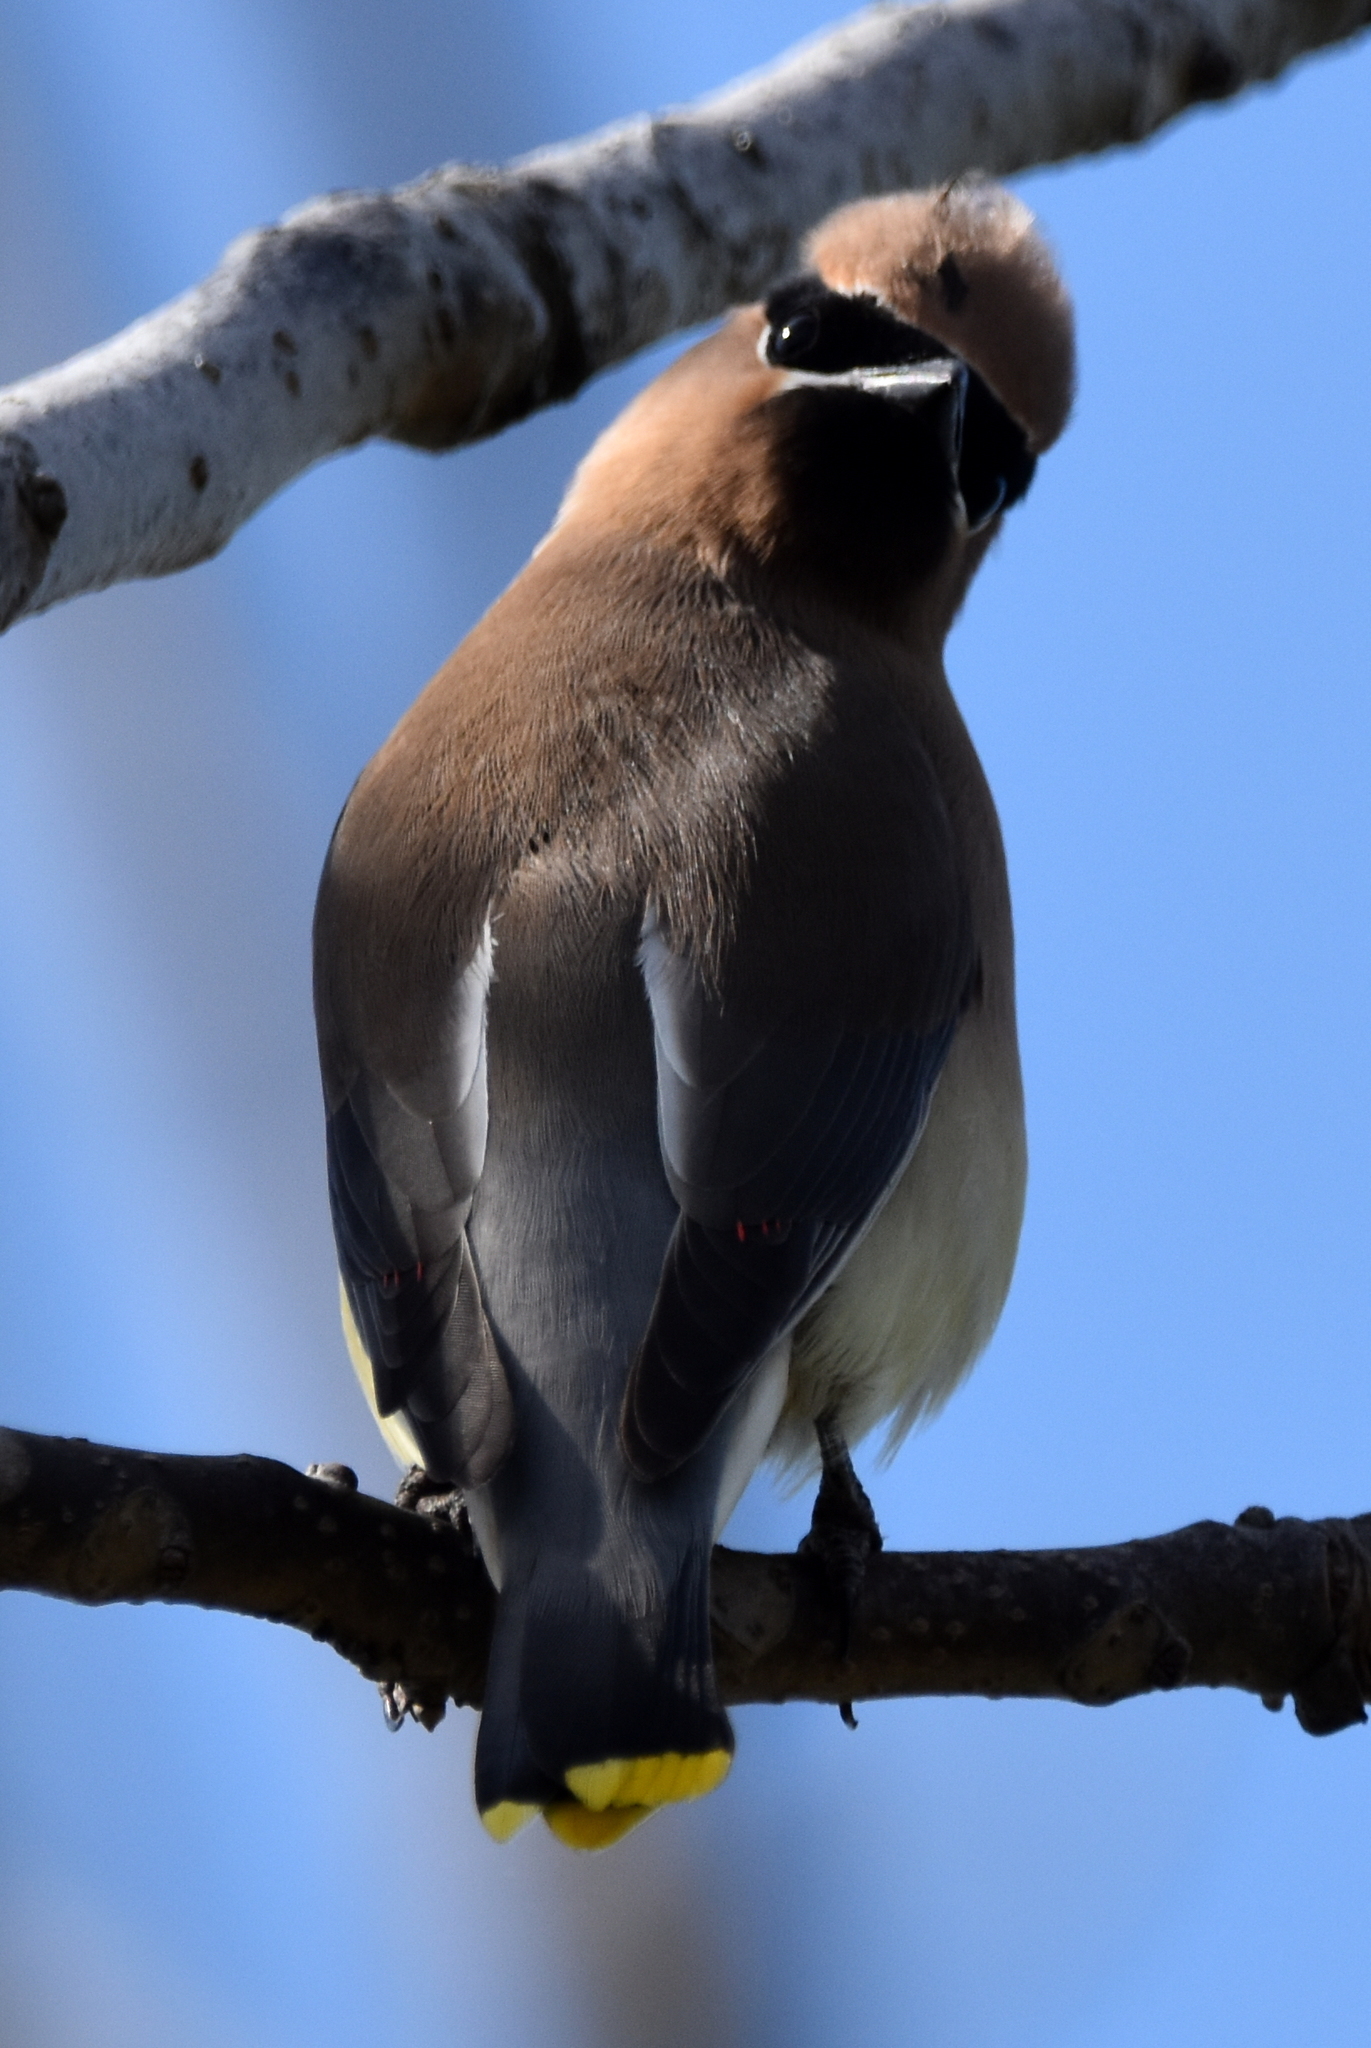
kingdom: Animalia
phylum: Chordata
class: Aves
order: Passeriformes
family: Bombycillidae
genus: Bombycilla
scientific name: Bombycilla cedrorum
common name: Cedar waxwing
